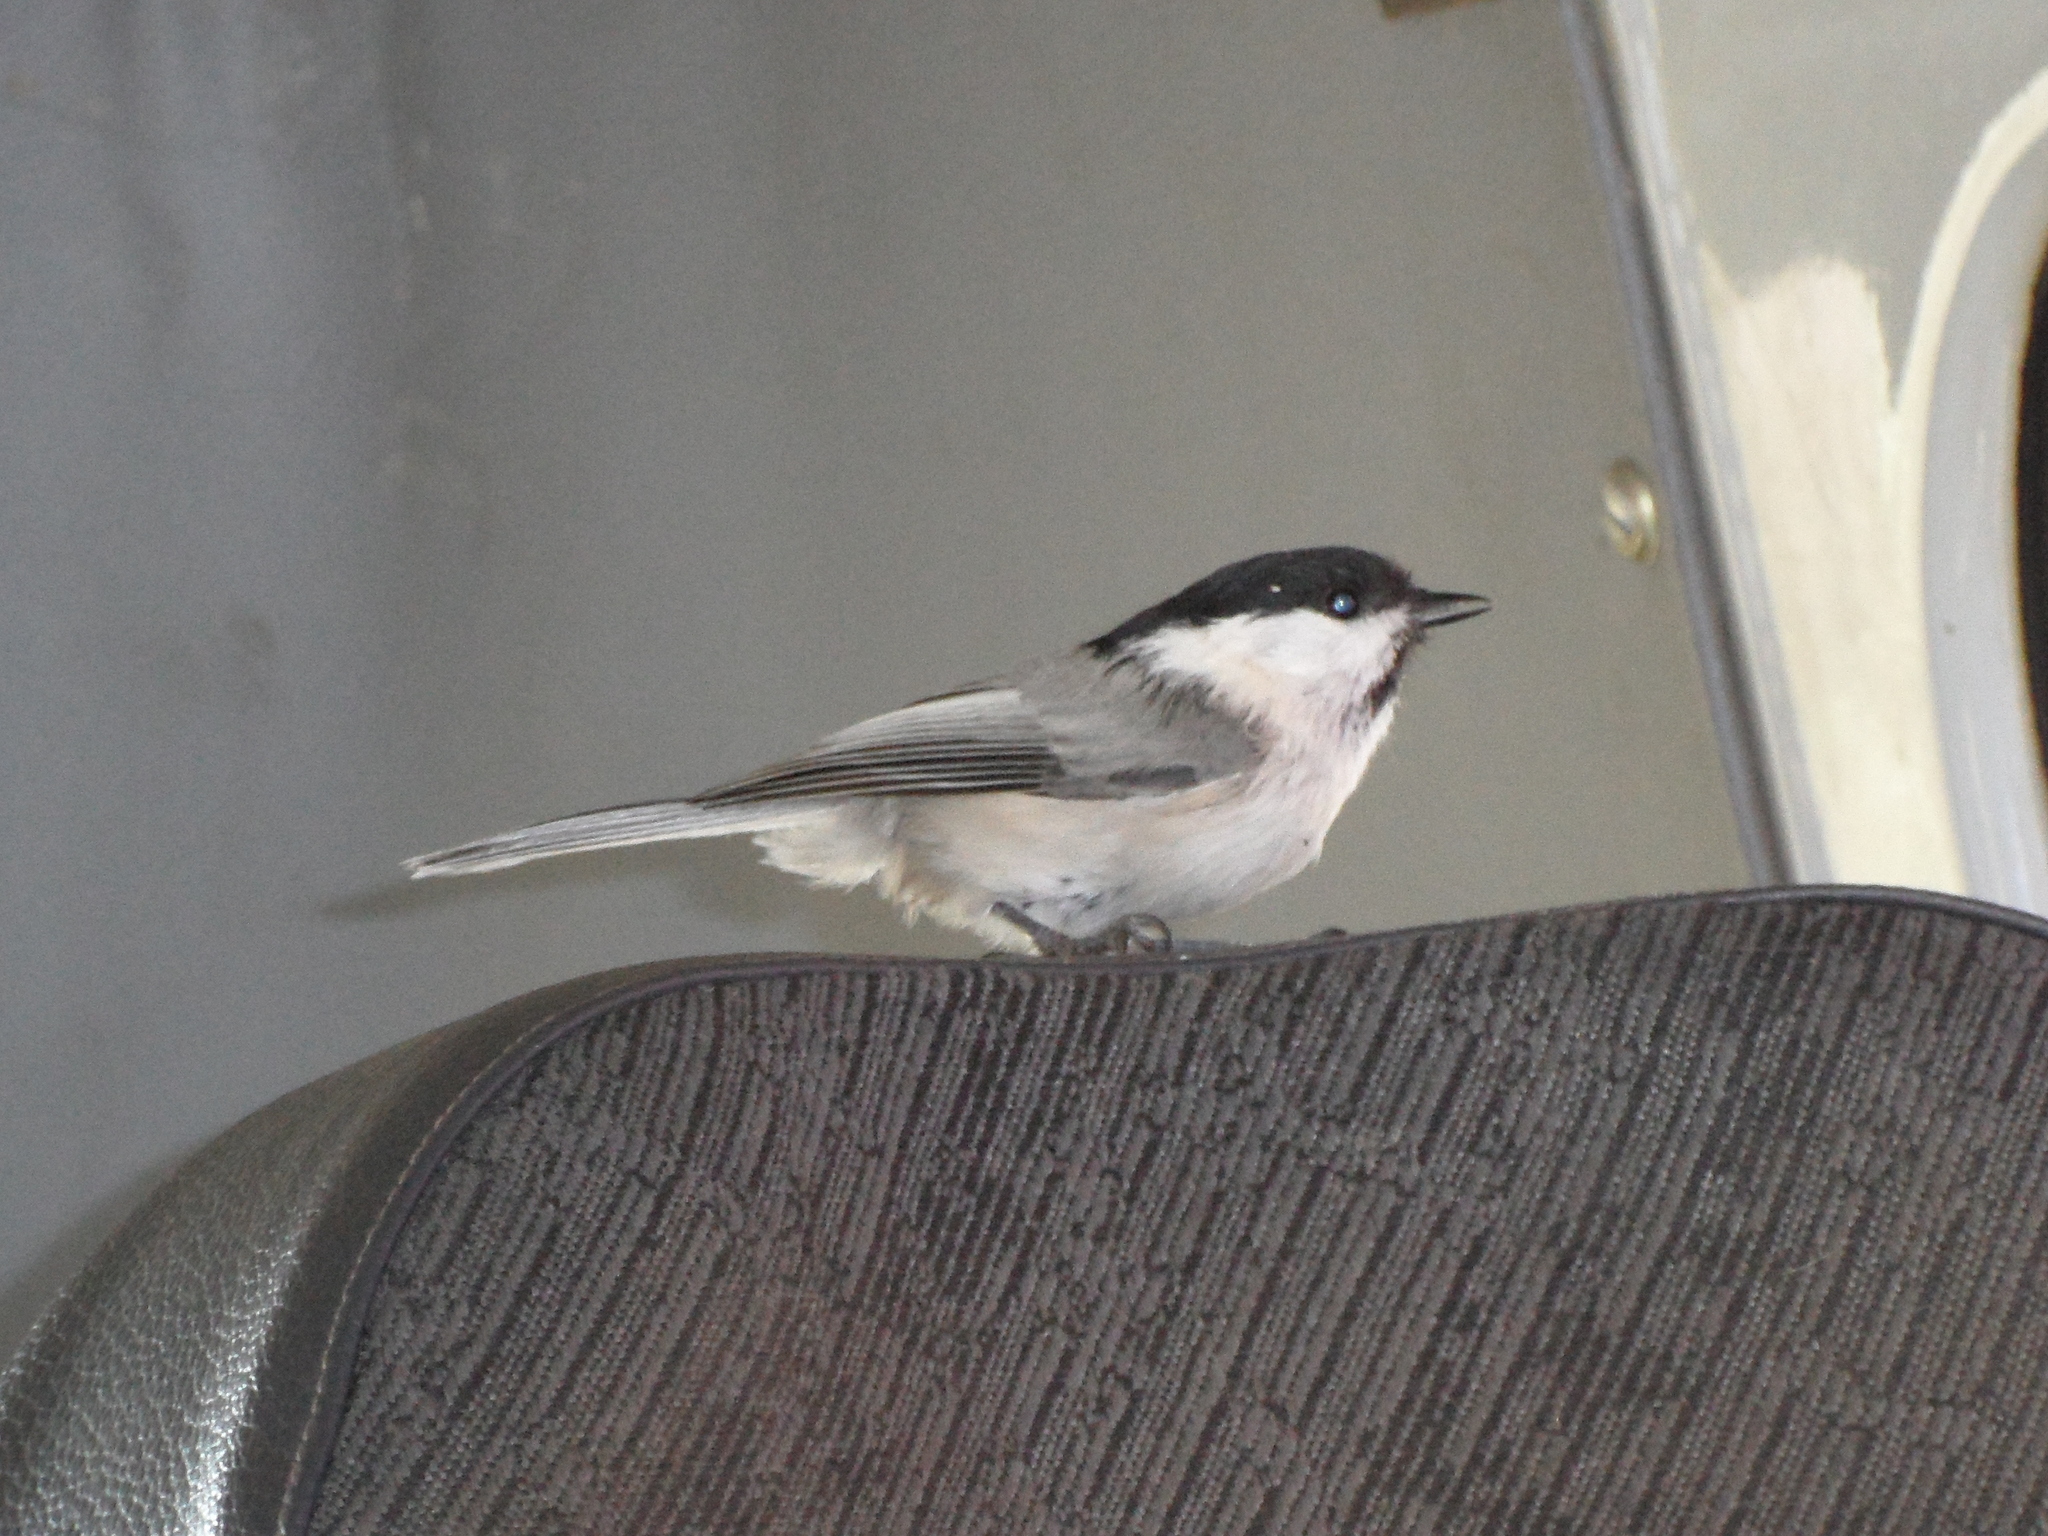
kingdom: Animalia
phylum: Chordata
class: Aves
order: Passeriformes
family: Paridae
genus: Poecile
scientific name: Poecile montanus
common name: Willow tit
